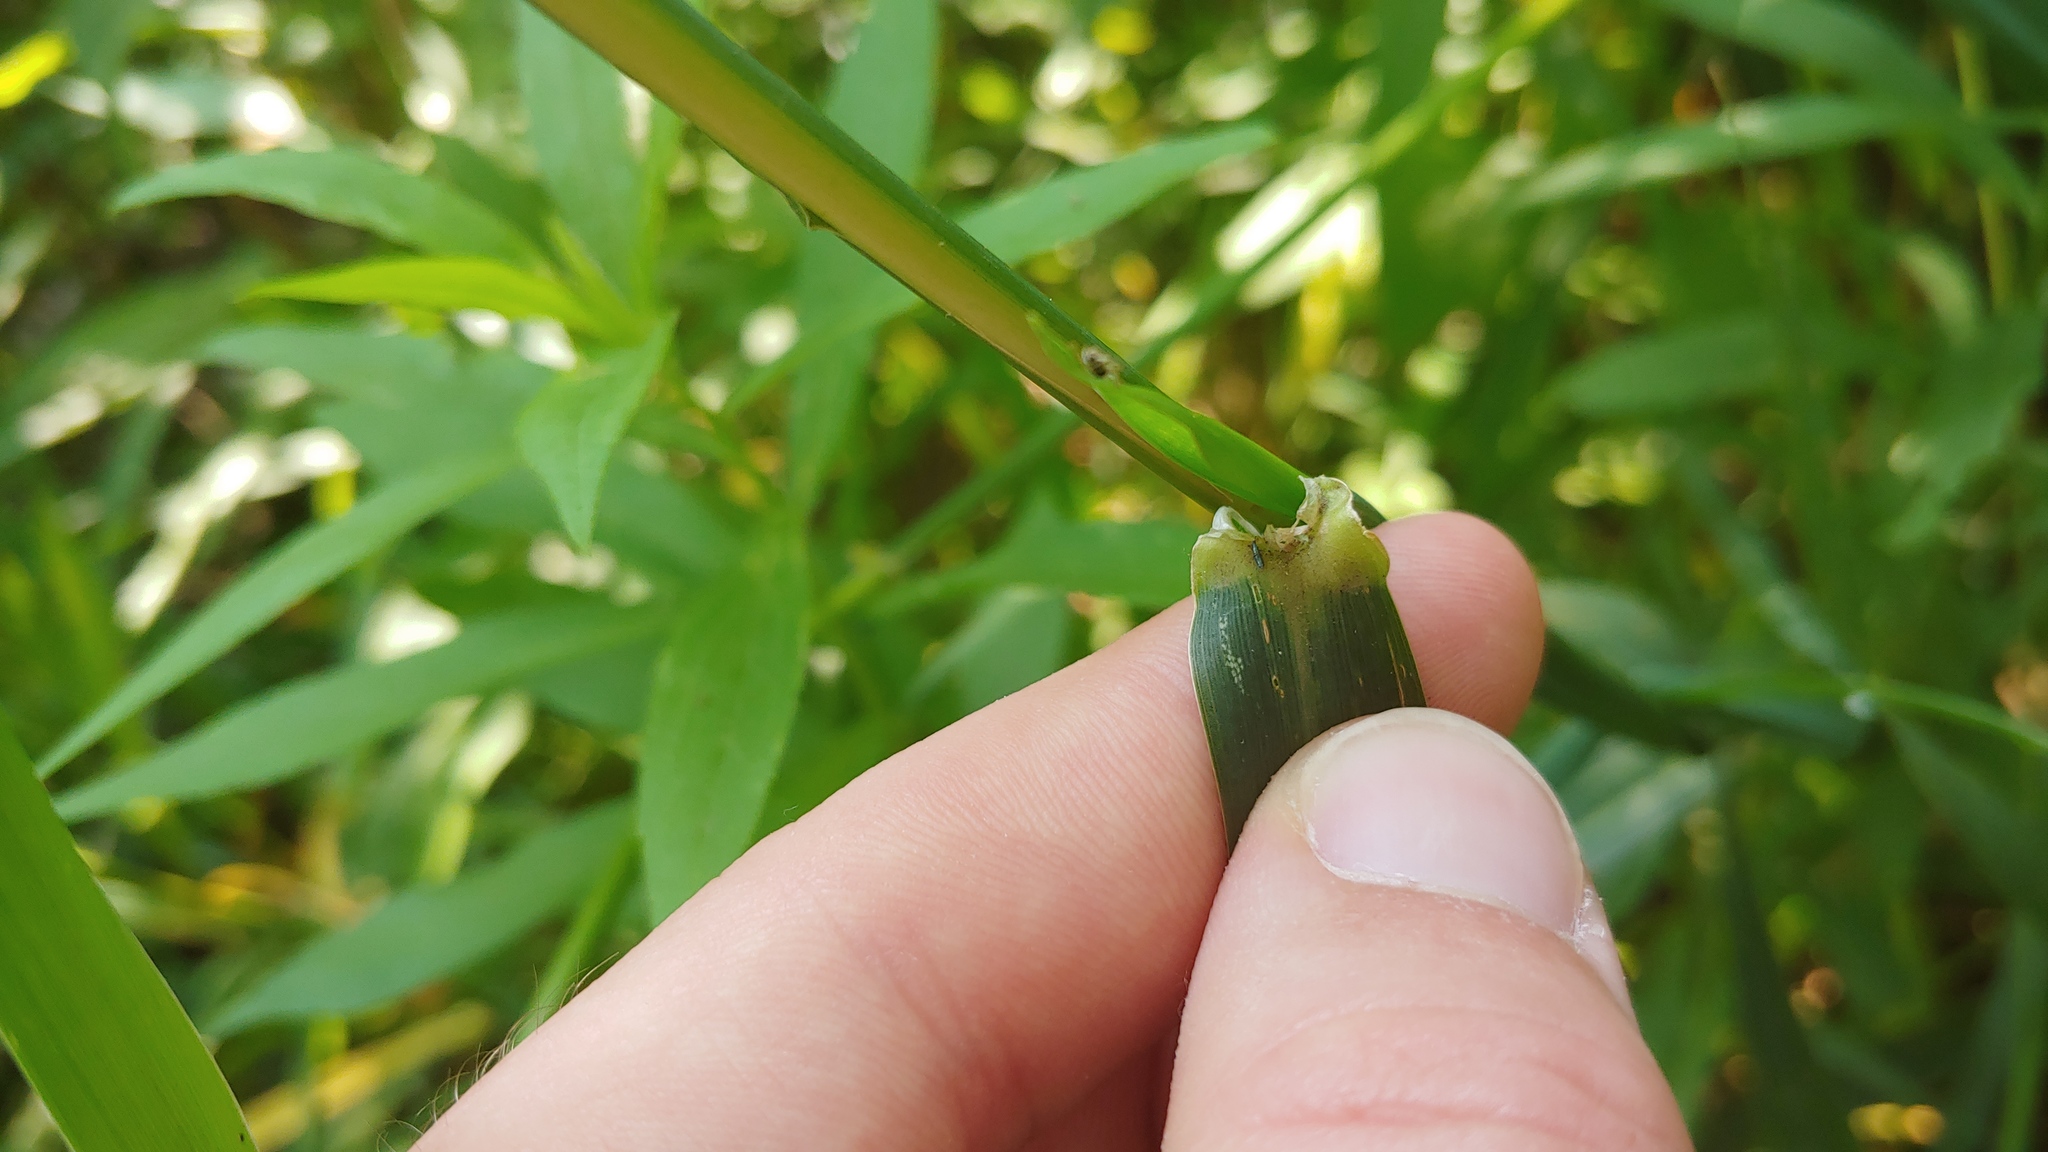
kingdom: Animalia
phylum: Arthropoda
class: Collembola
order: Entomobryomorpha
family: Entomobryidae
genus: Lepidocyrtus
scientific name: Lepidocyrtus paradoxus
